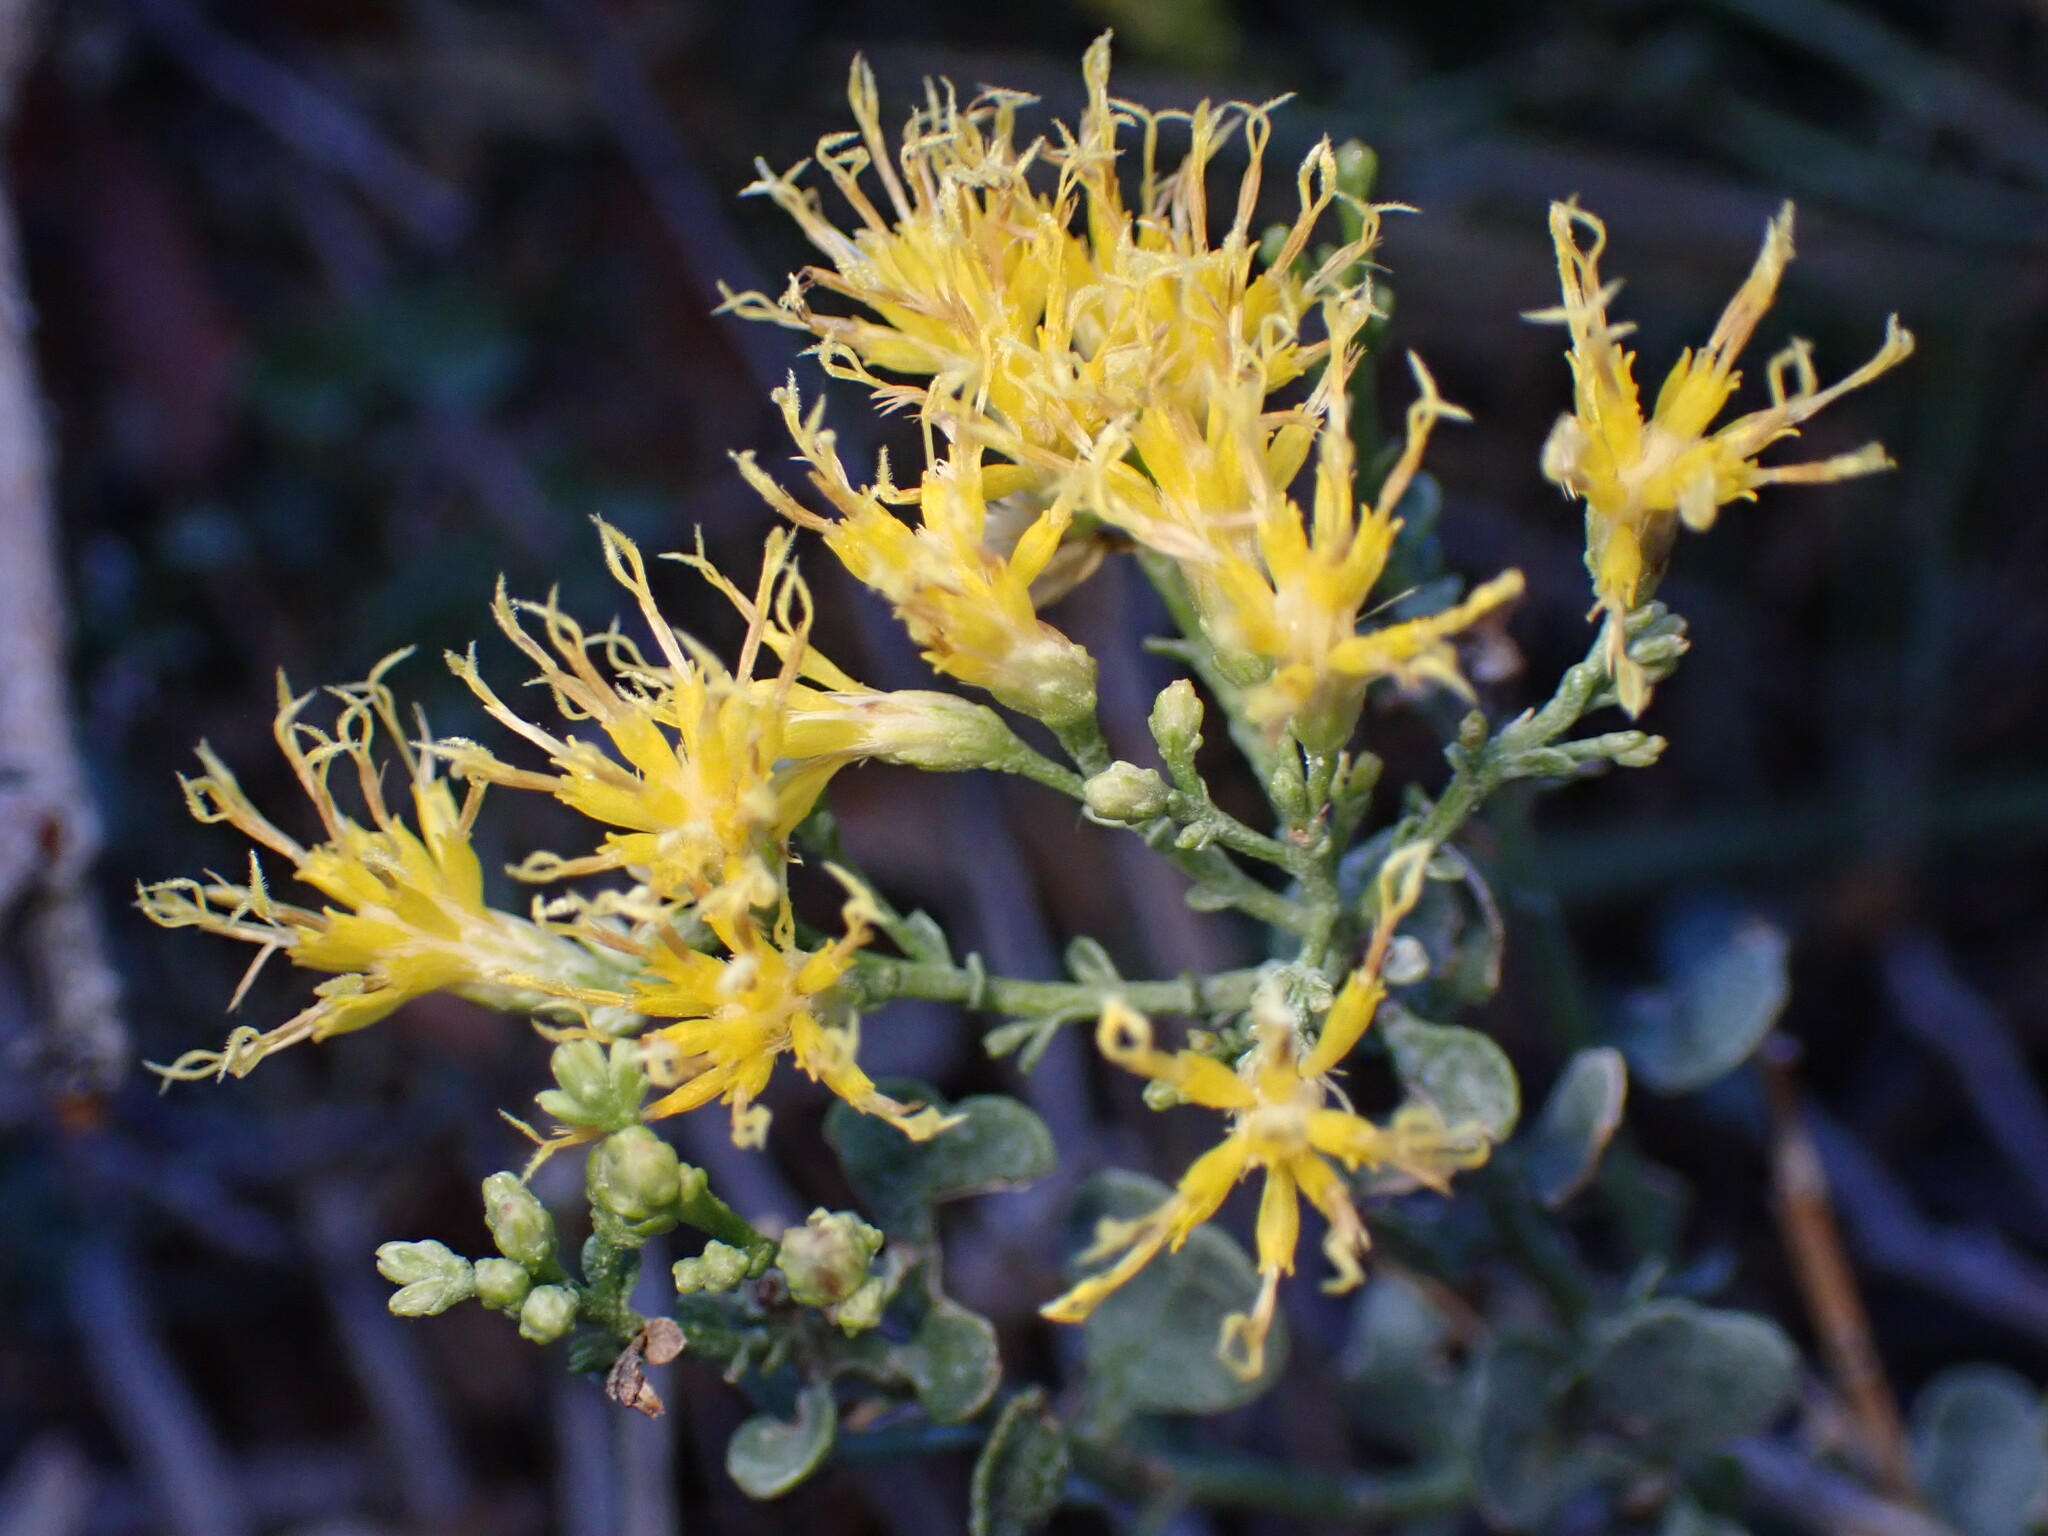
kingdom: Plantae
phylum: Tracheophyta
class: Magnoliopsida
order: Asterales
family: Asteraceae
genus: Ericameria
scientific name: Ericameria cuneata
